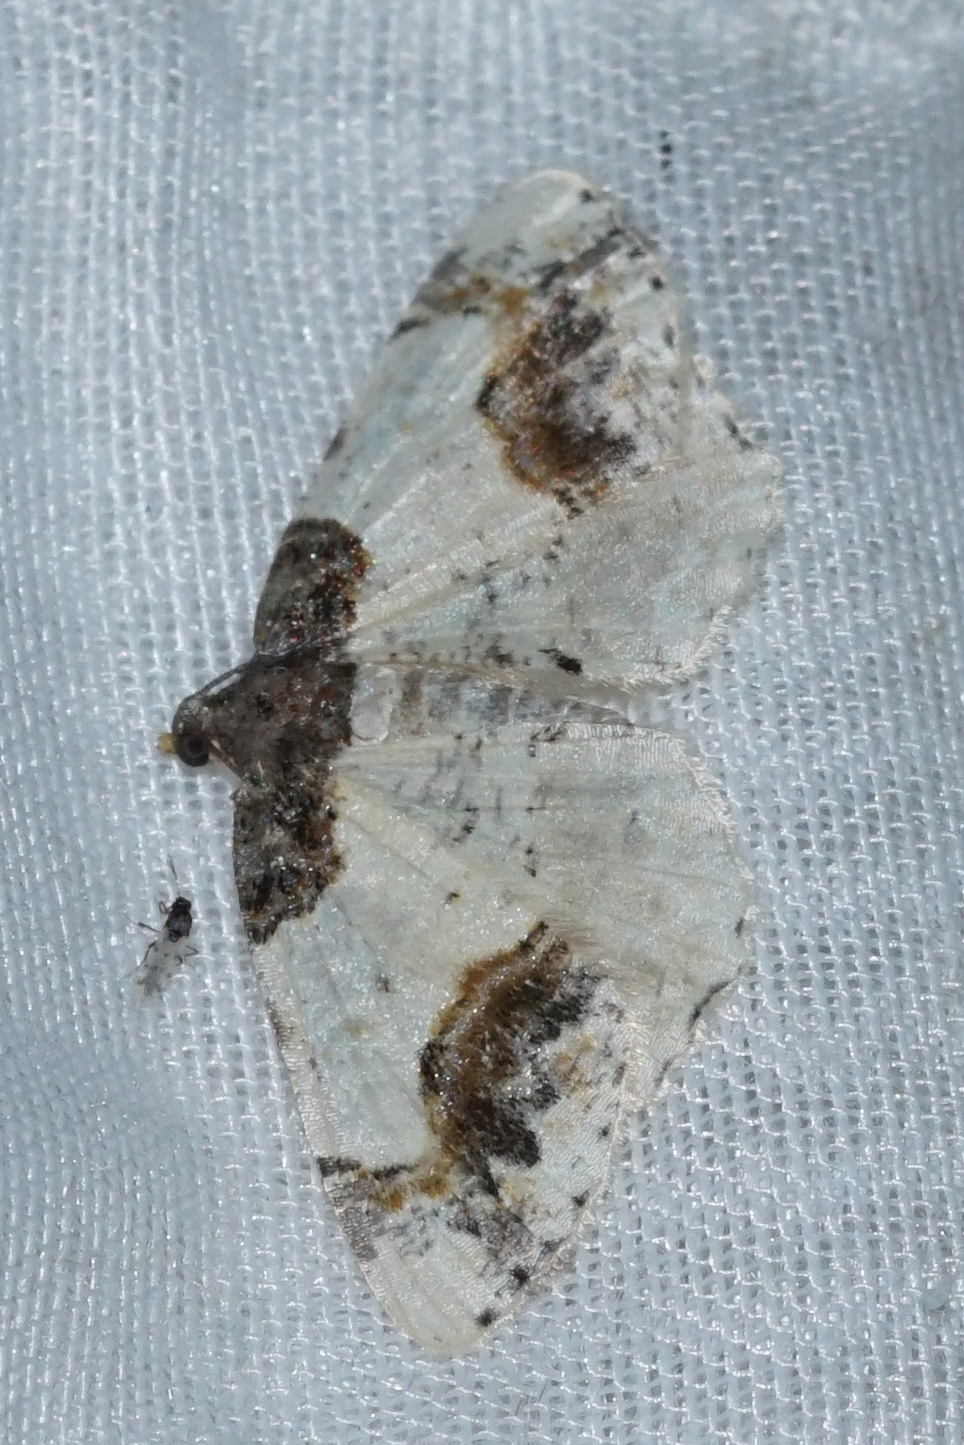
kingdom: Animalia
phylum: Arthropoda
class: Insecta
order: Lepidoptera
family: Geometridae
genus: Ligdia
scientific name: Ligdia adustata
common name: Scorched carpet
